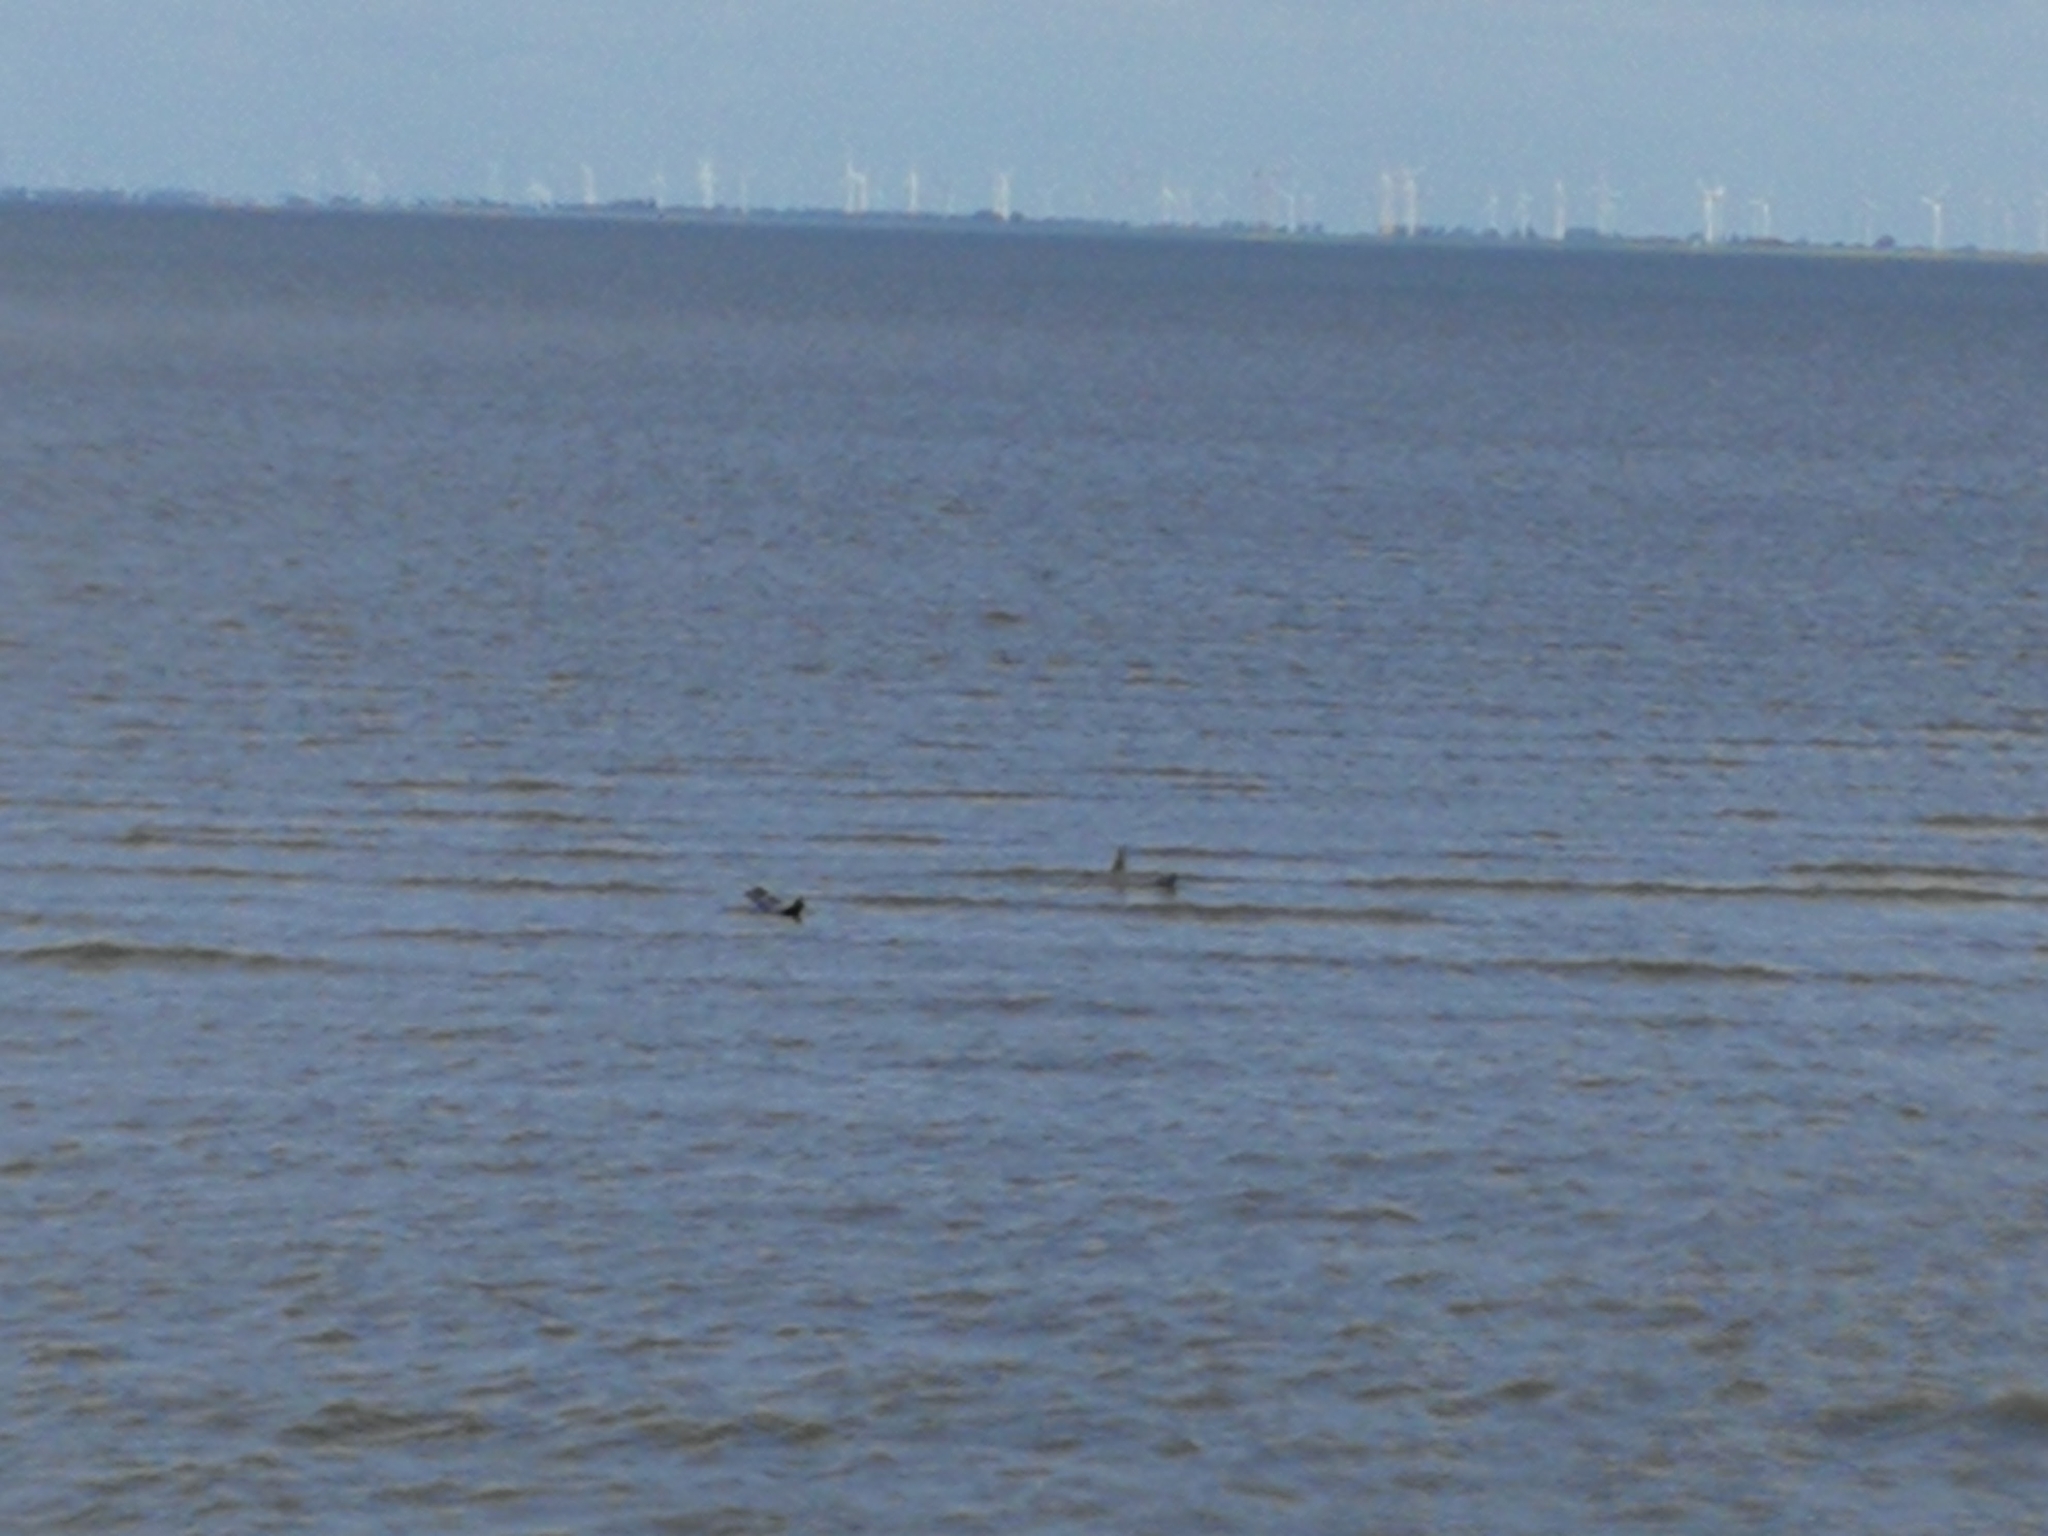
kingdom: Animalia
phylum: Chordata
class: Mammalia
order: Carnivora
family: Phocidae
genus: Phoca
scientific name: Phoca vitulina
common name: Harbor seal
